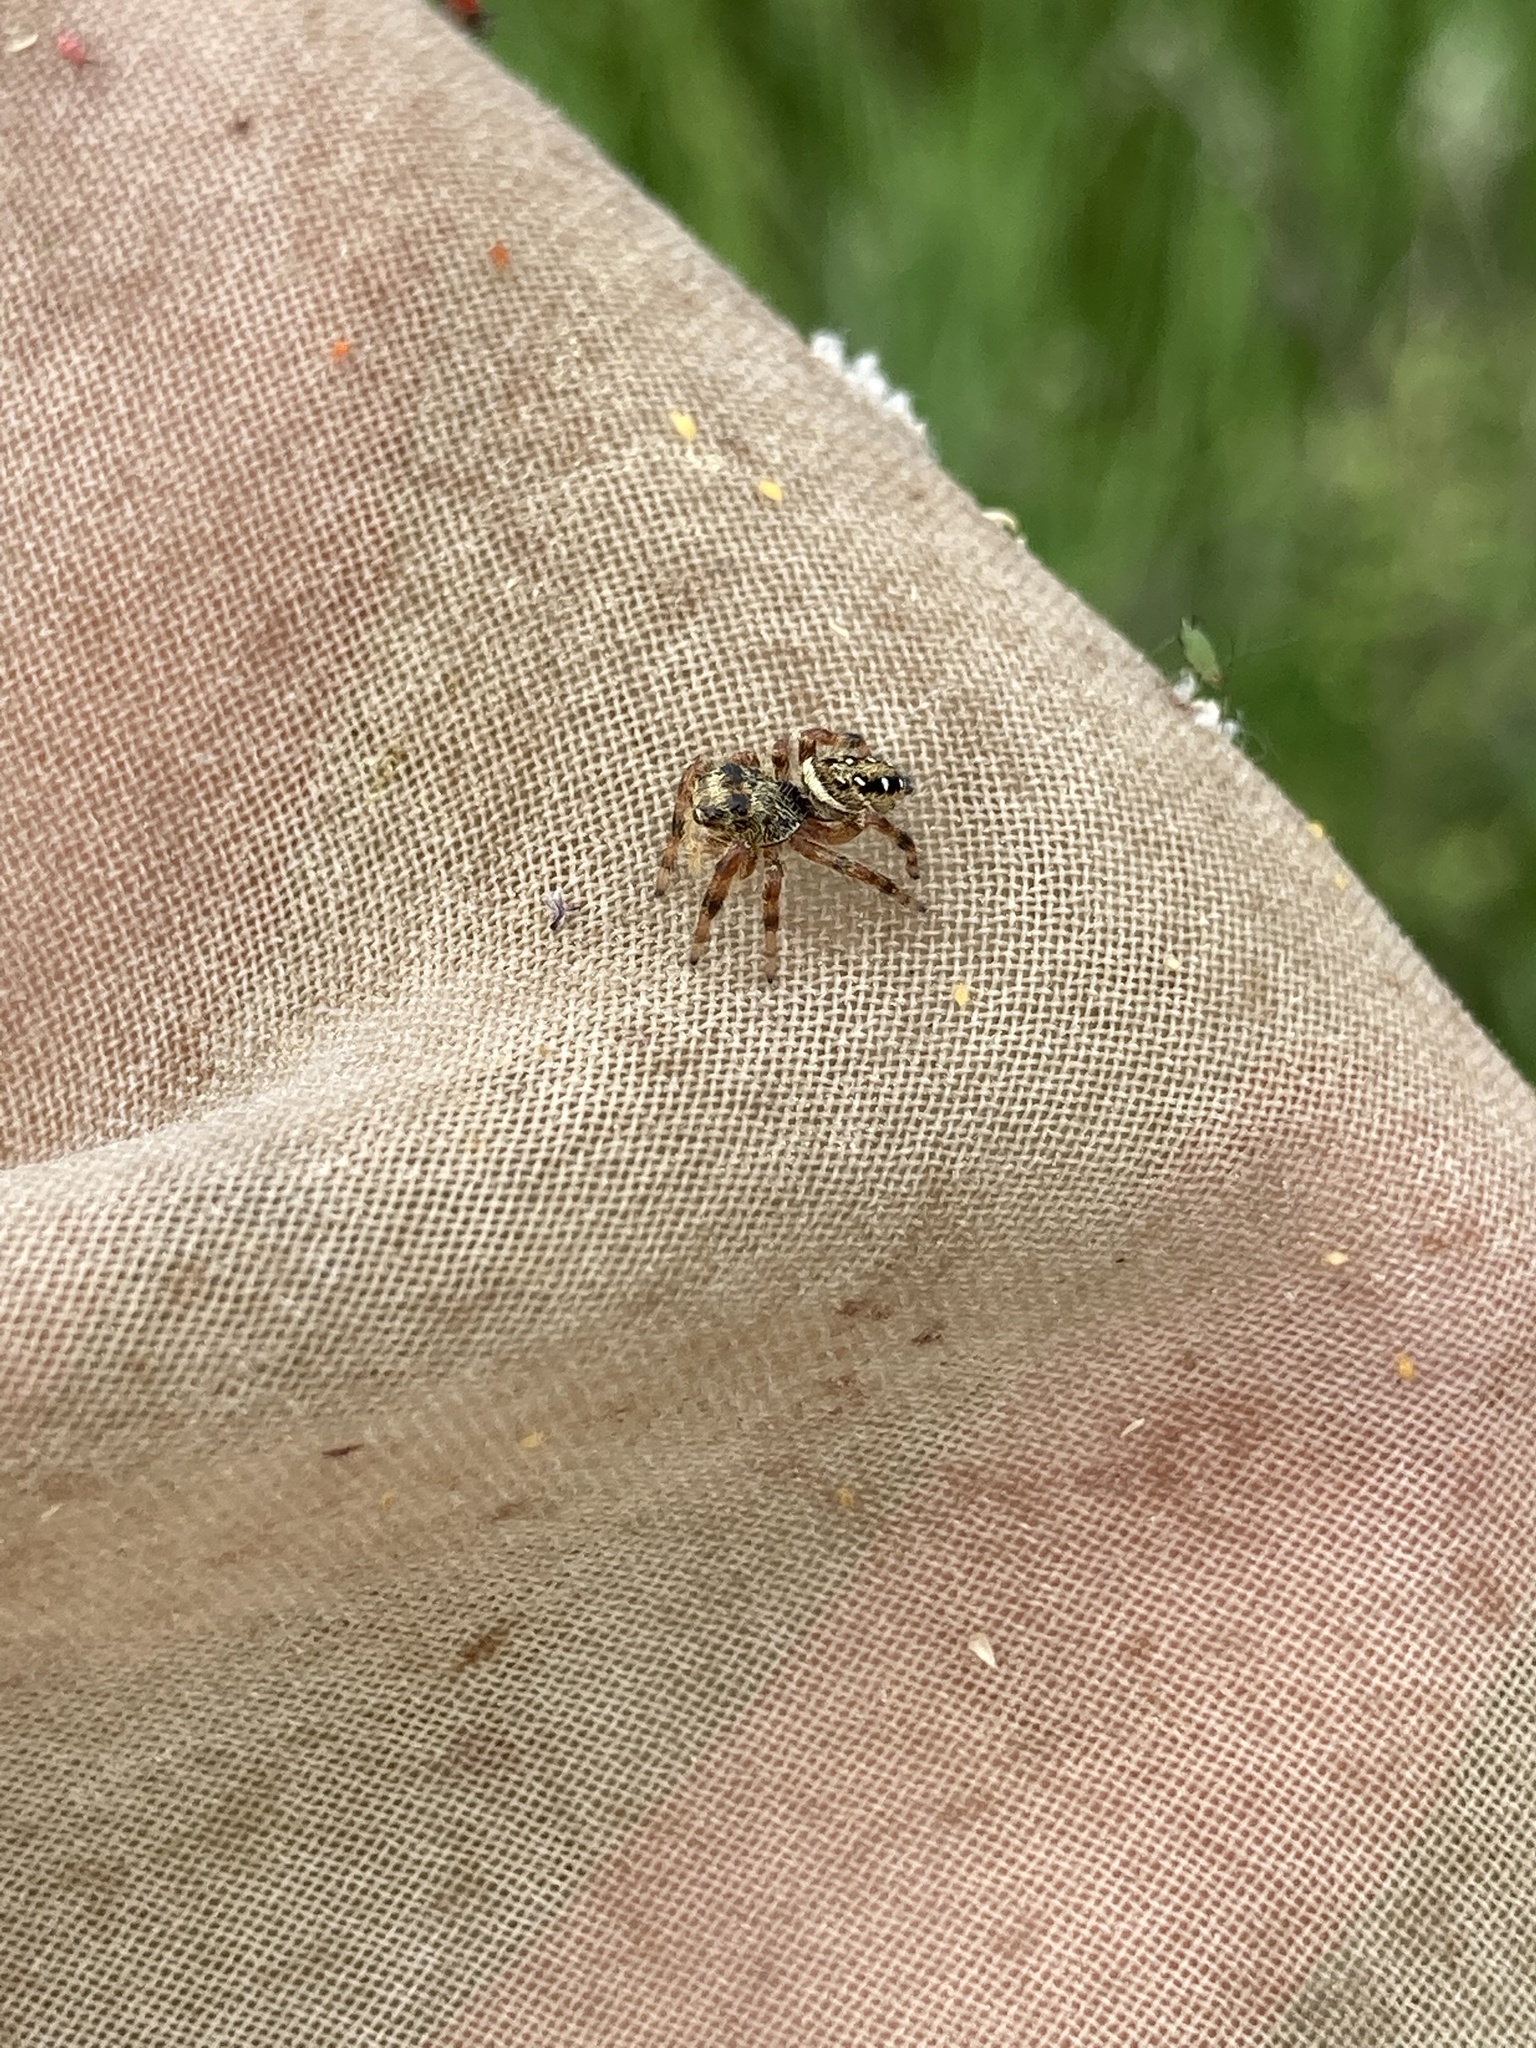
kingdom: Animalia
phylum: Arthropoda
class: Arachnida
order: Araneae
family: Salticidae
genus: Phidippus
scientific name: Phidippus clarus
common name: Brilliant jumping spider
